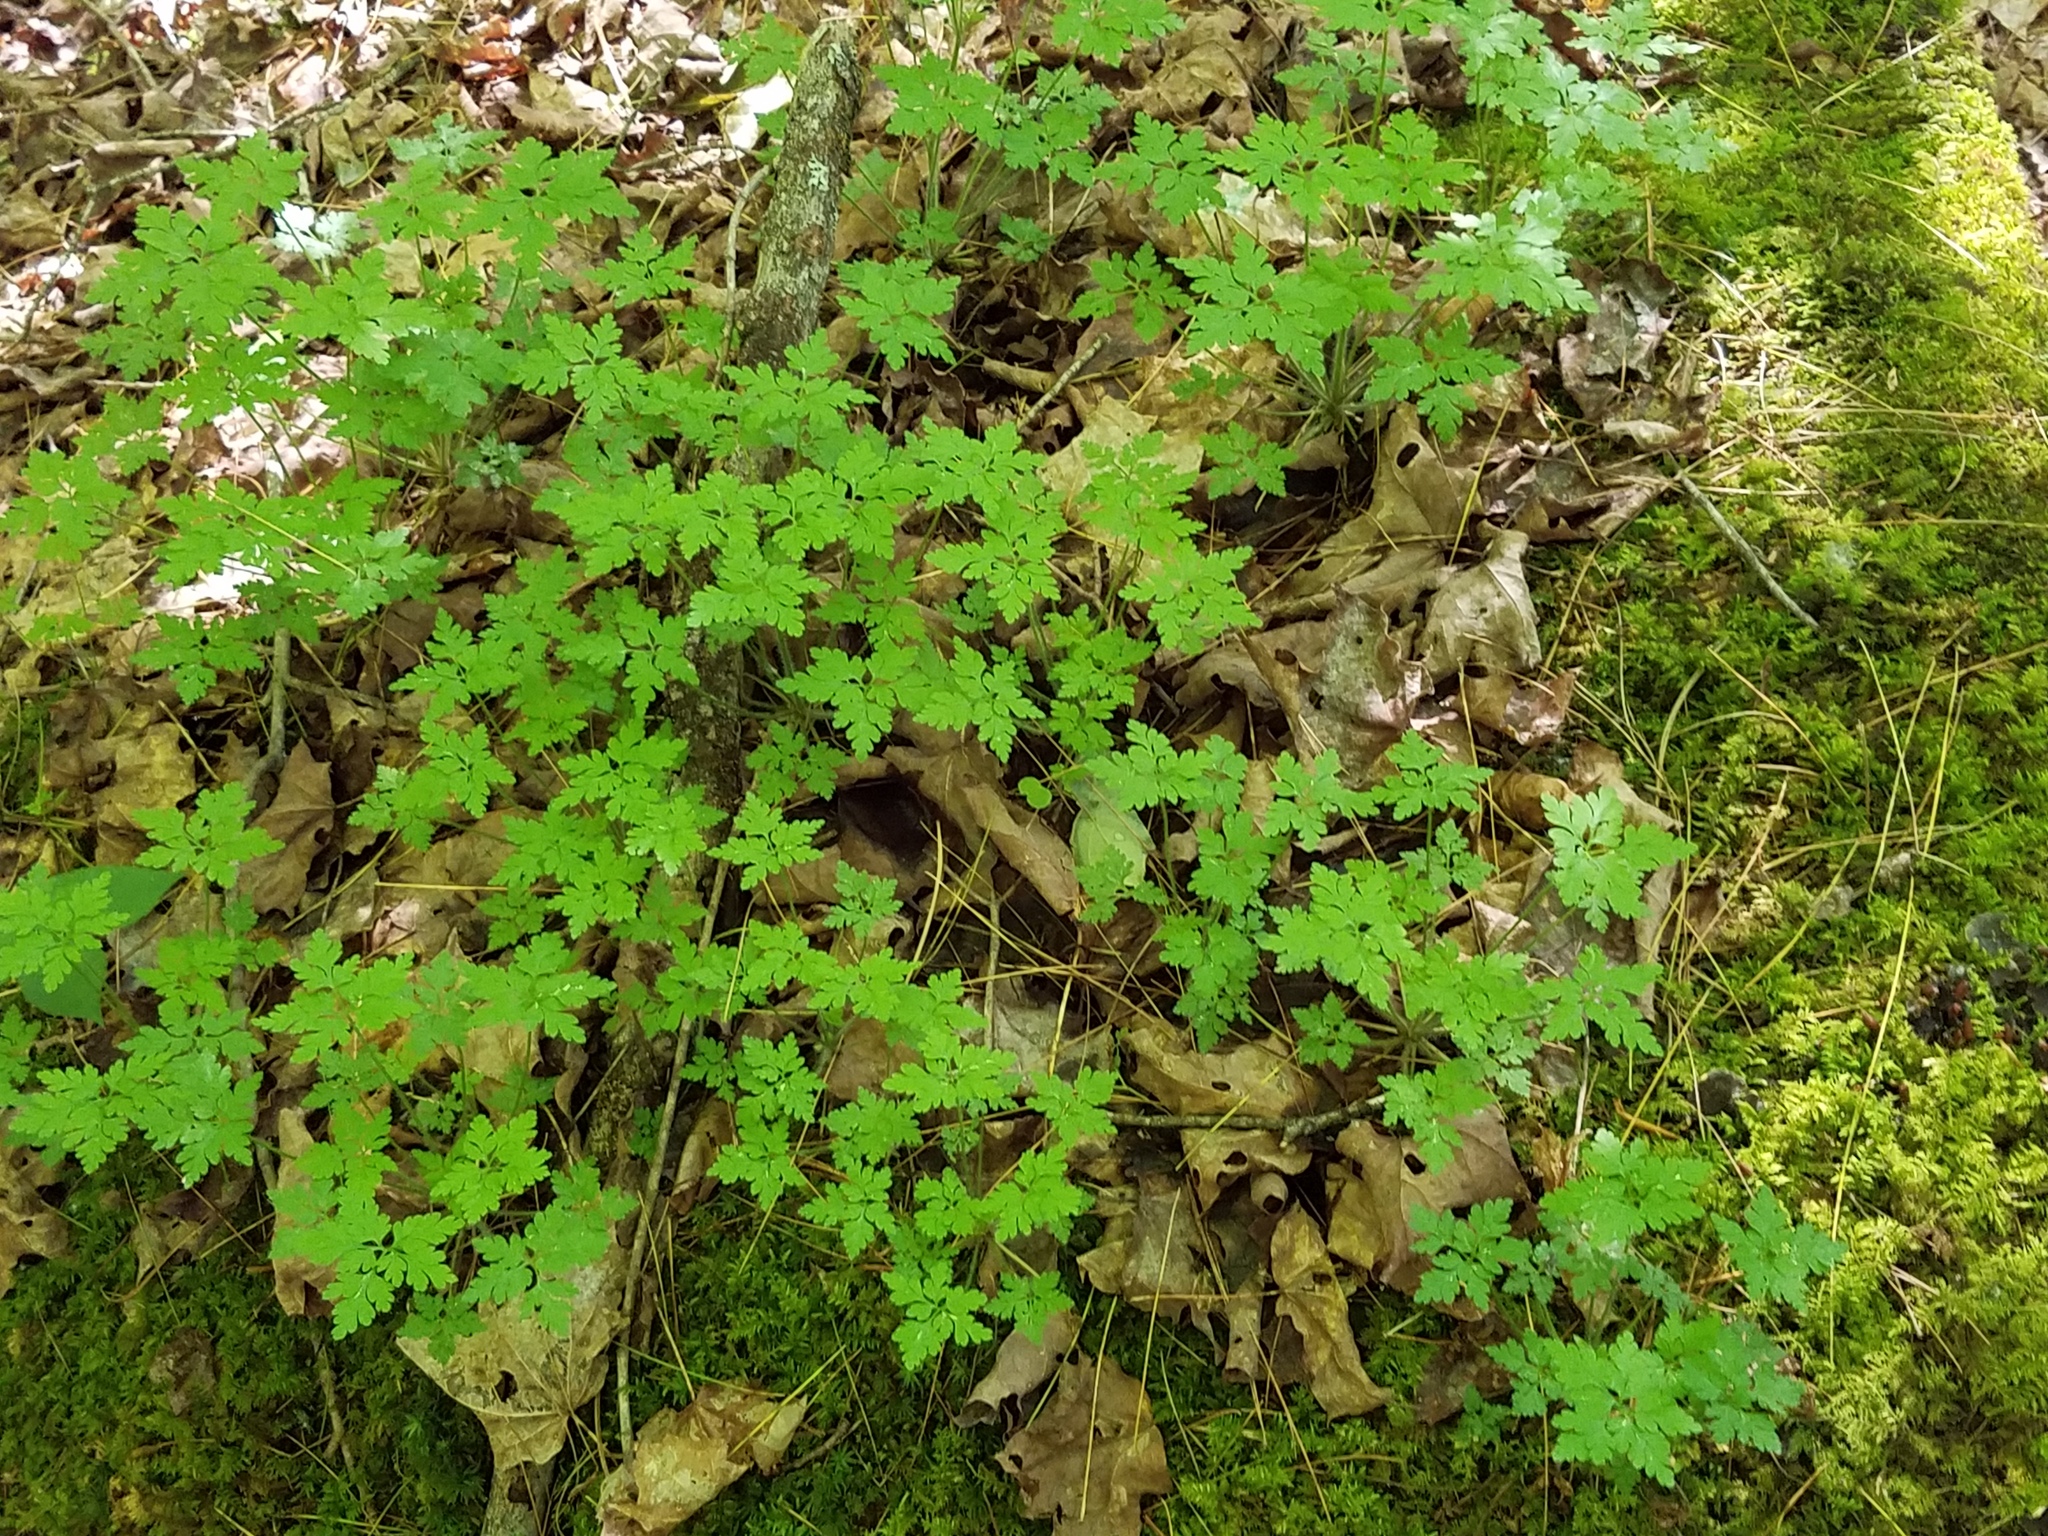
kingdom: Plantae
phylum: Tracheophyta
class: Magnoliopsida
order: Geraniales
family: Geraniaceae
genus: Geranium
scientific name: Geranium robertianum
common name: Herb-robert
